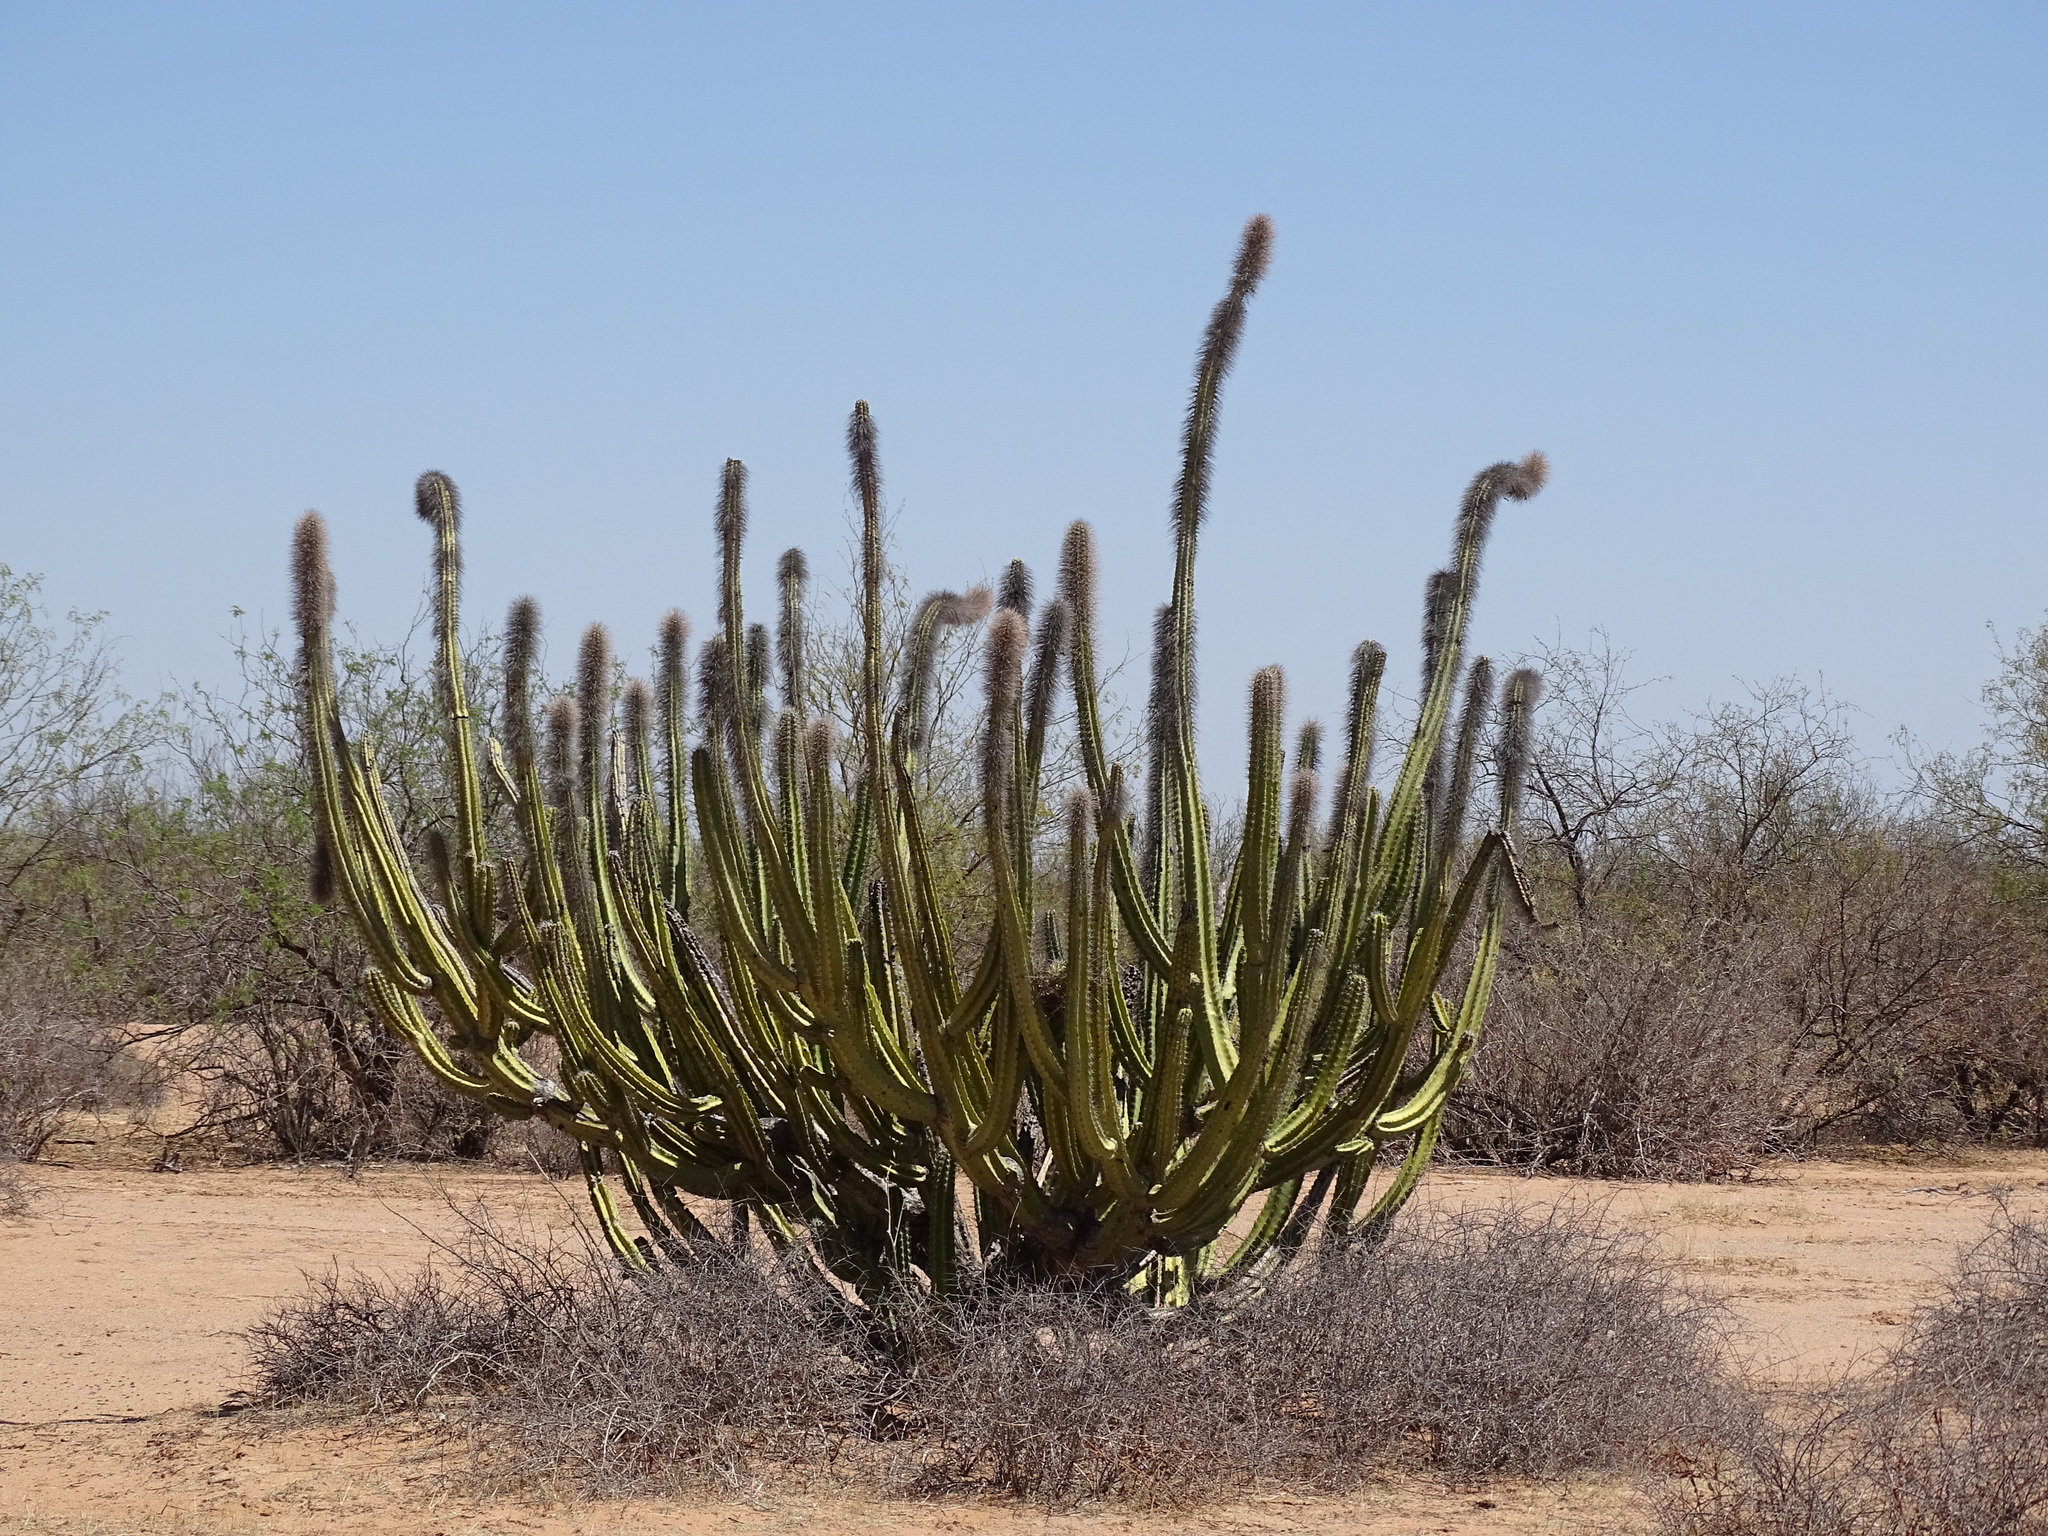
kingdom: Plantae
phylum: Tracheophyta
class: Magnoliopsida
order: Caryophyllales
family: Cactaceae
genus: Pachycereus
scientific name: Pachycereus schottii
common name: Senita cactus
